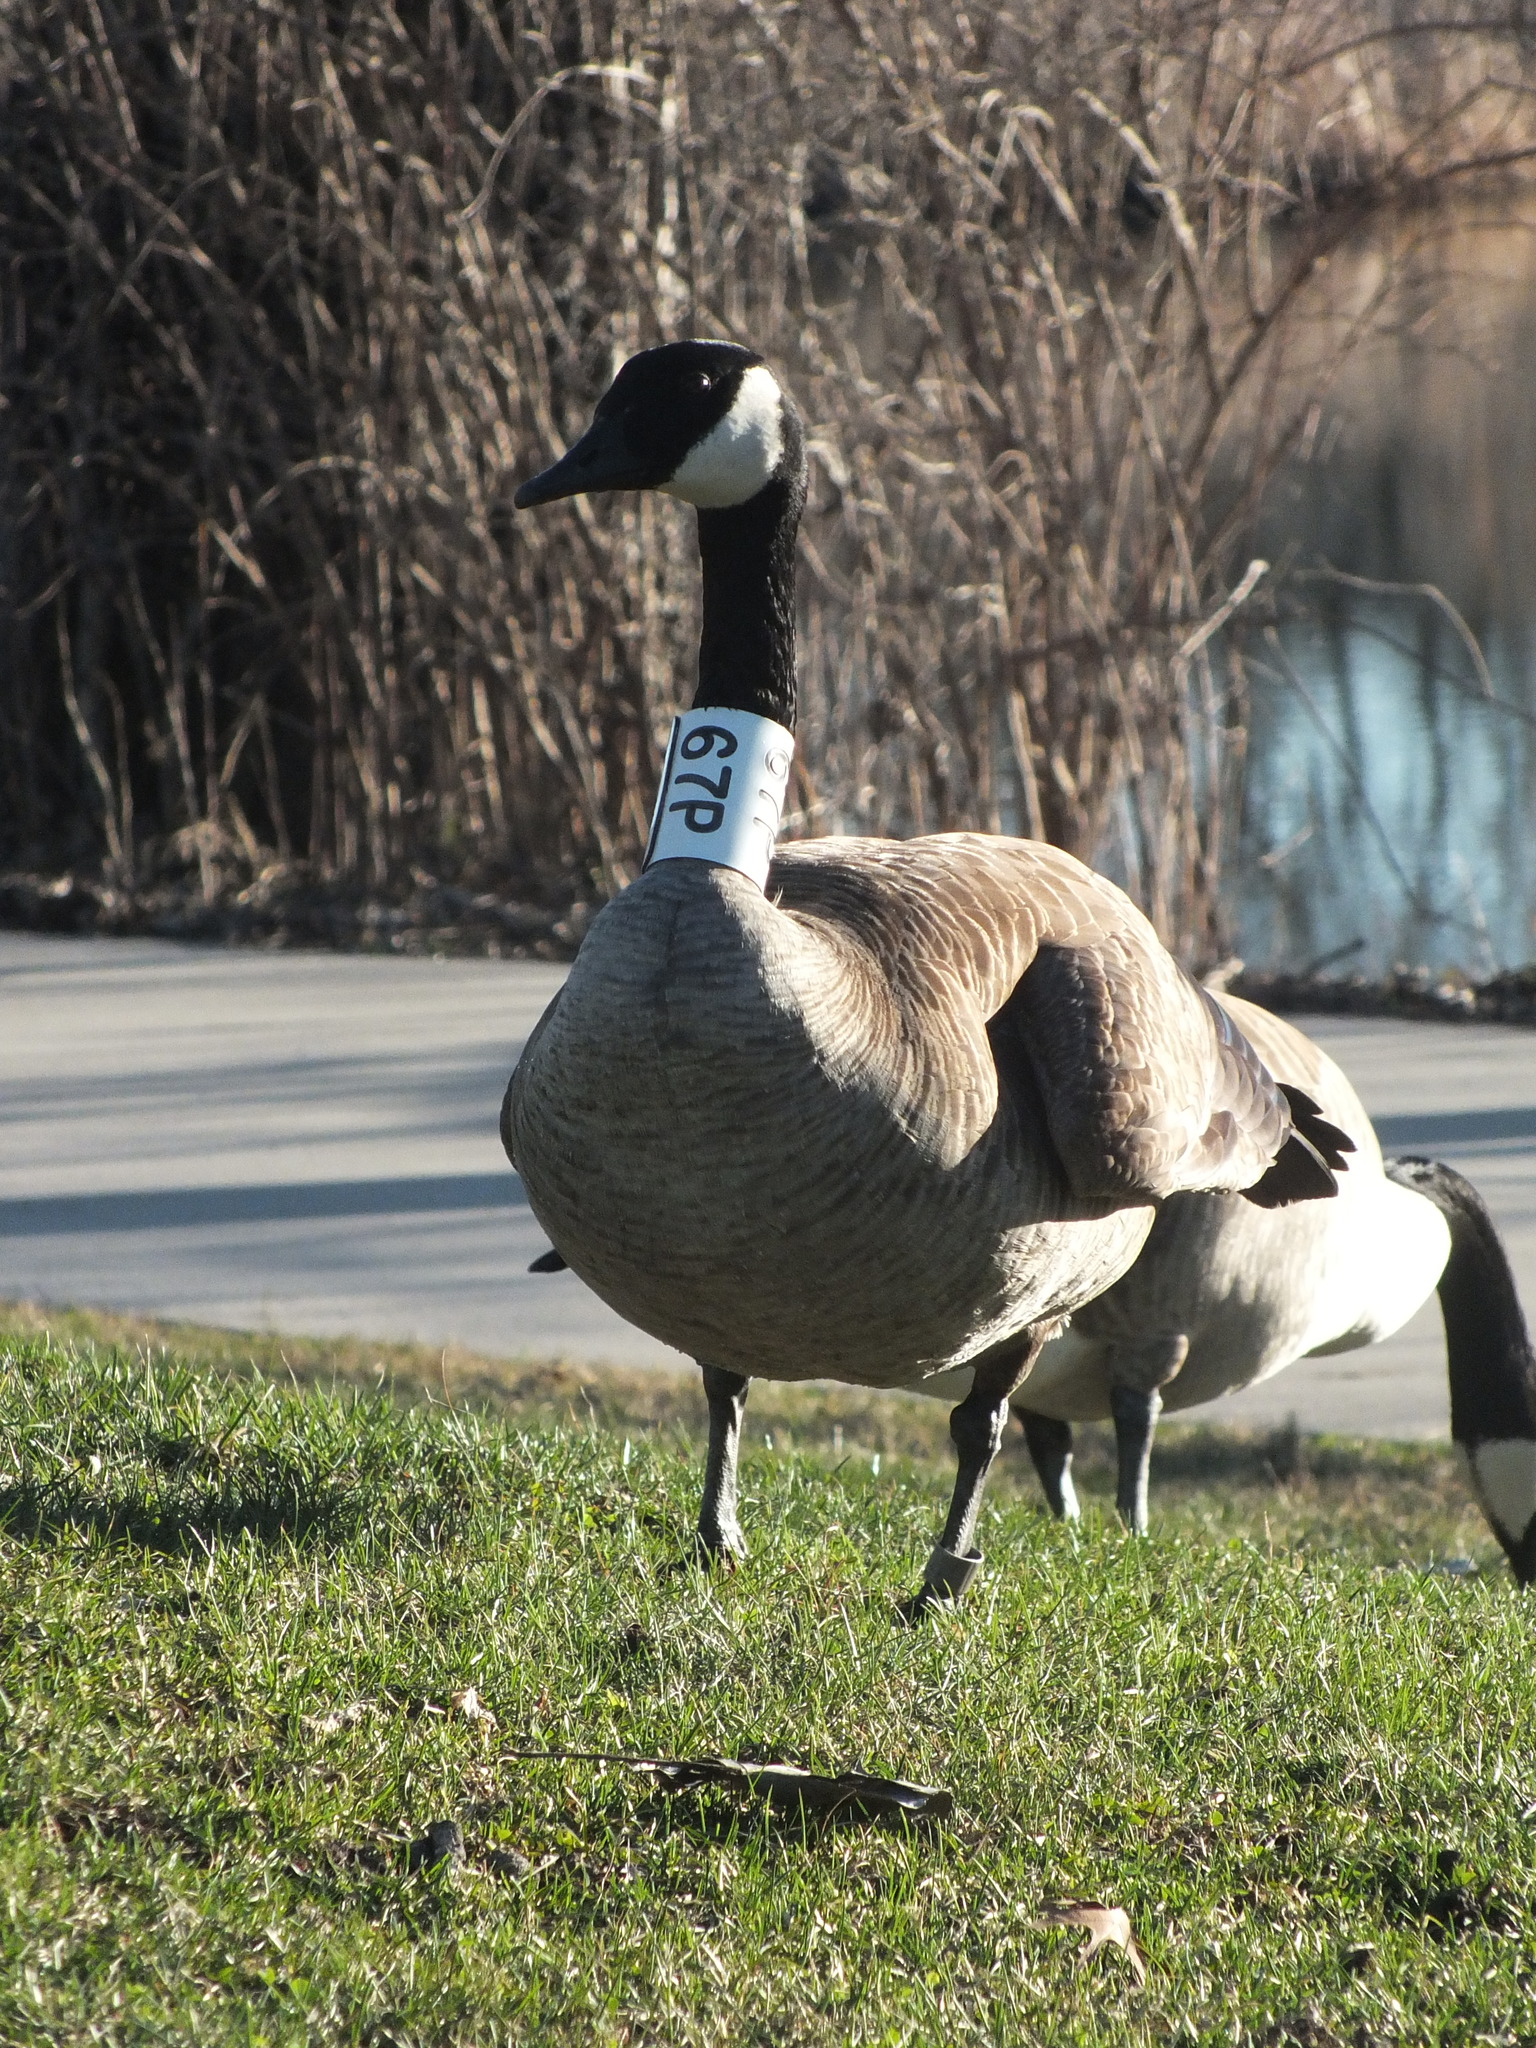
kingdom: Animalia
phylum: Chordata
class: Aves
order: Anseriformes
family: Anatidae
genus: Branta
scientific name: Branta canadensis
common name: Canada goose
